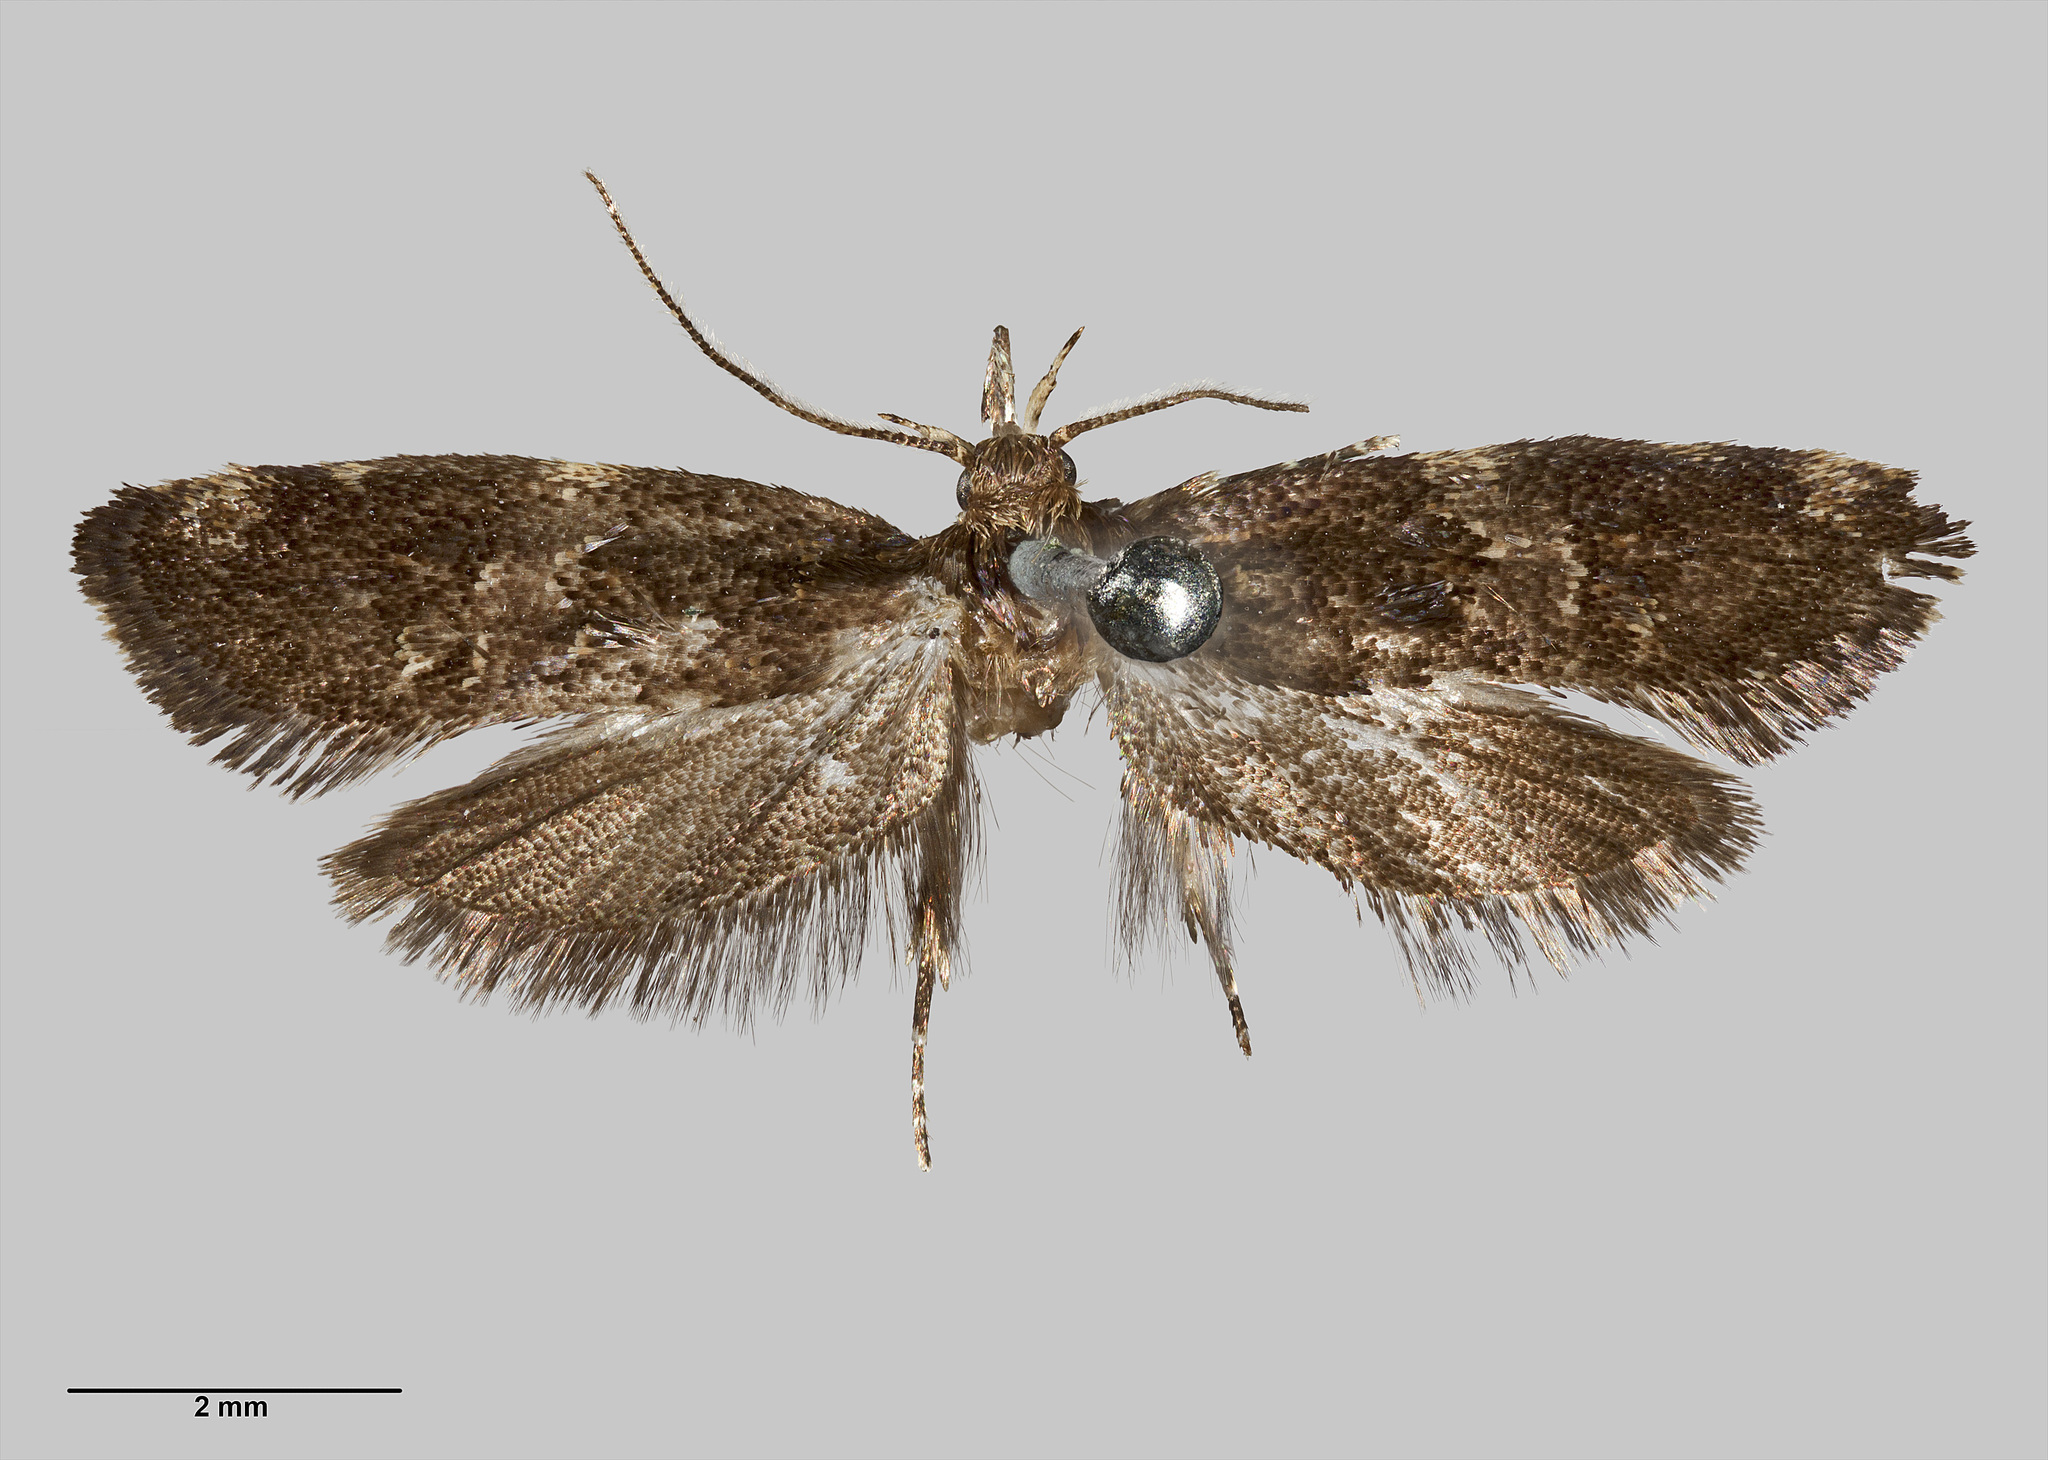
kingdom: Animalia
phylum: Arthropoda
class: Insecta
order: Lepidoptera
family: Oecophoridae
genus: Trachypepla
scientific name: Trachypepla nimbosa
